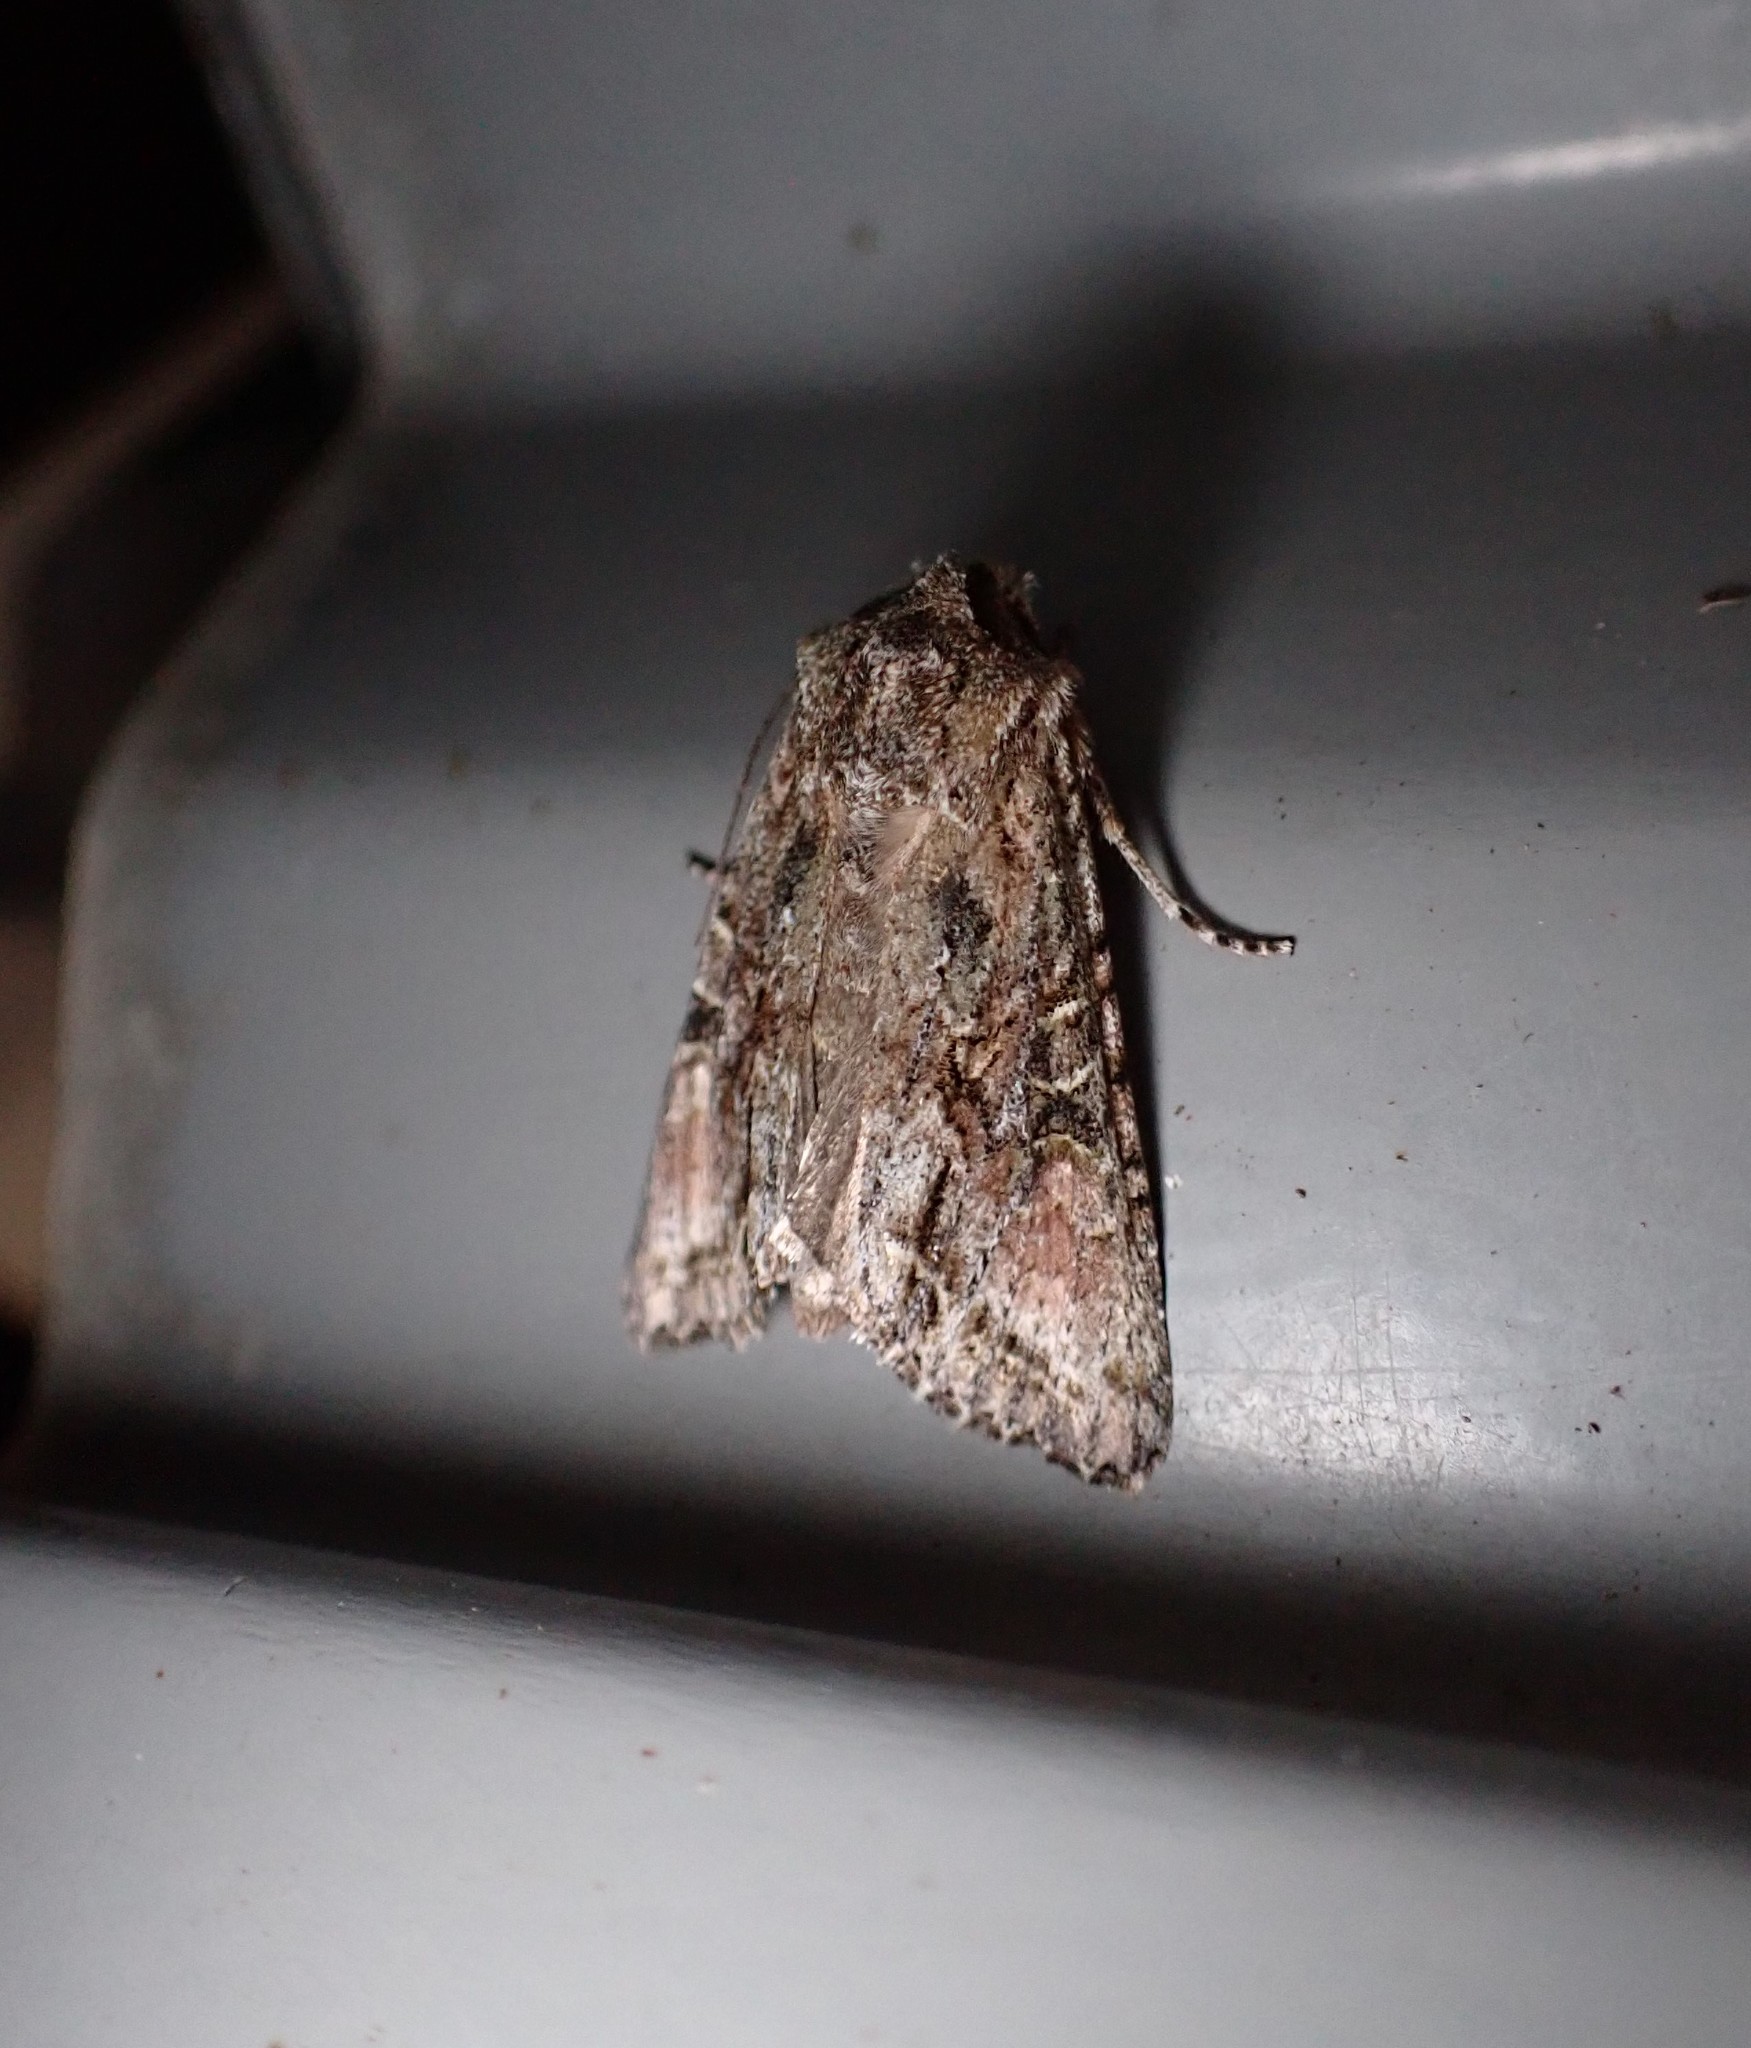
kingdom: Animalia
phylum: Arthropoda
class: Insecta
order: Lepidoptera
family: Noctuidae
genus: Ichneutica
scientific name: Ichneutica mutans
